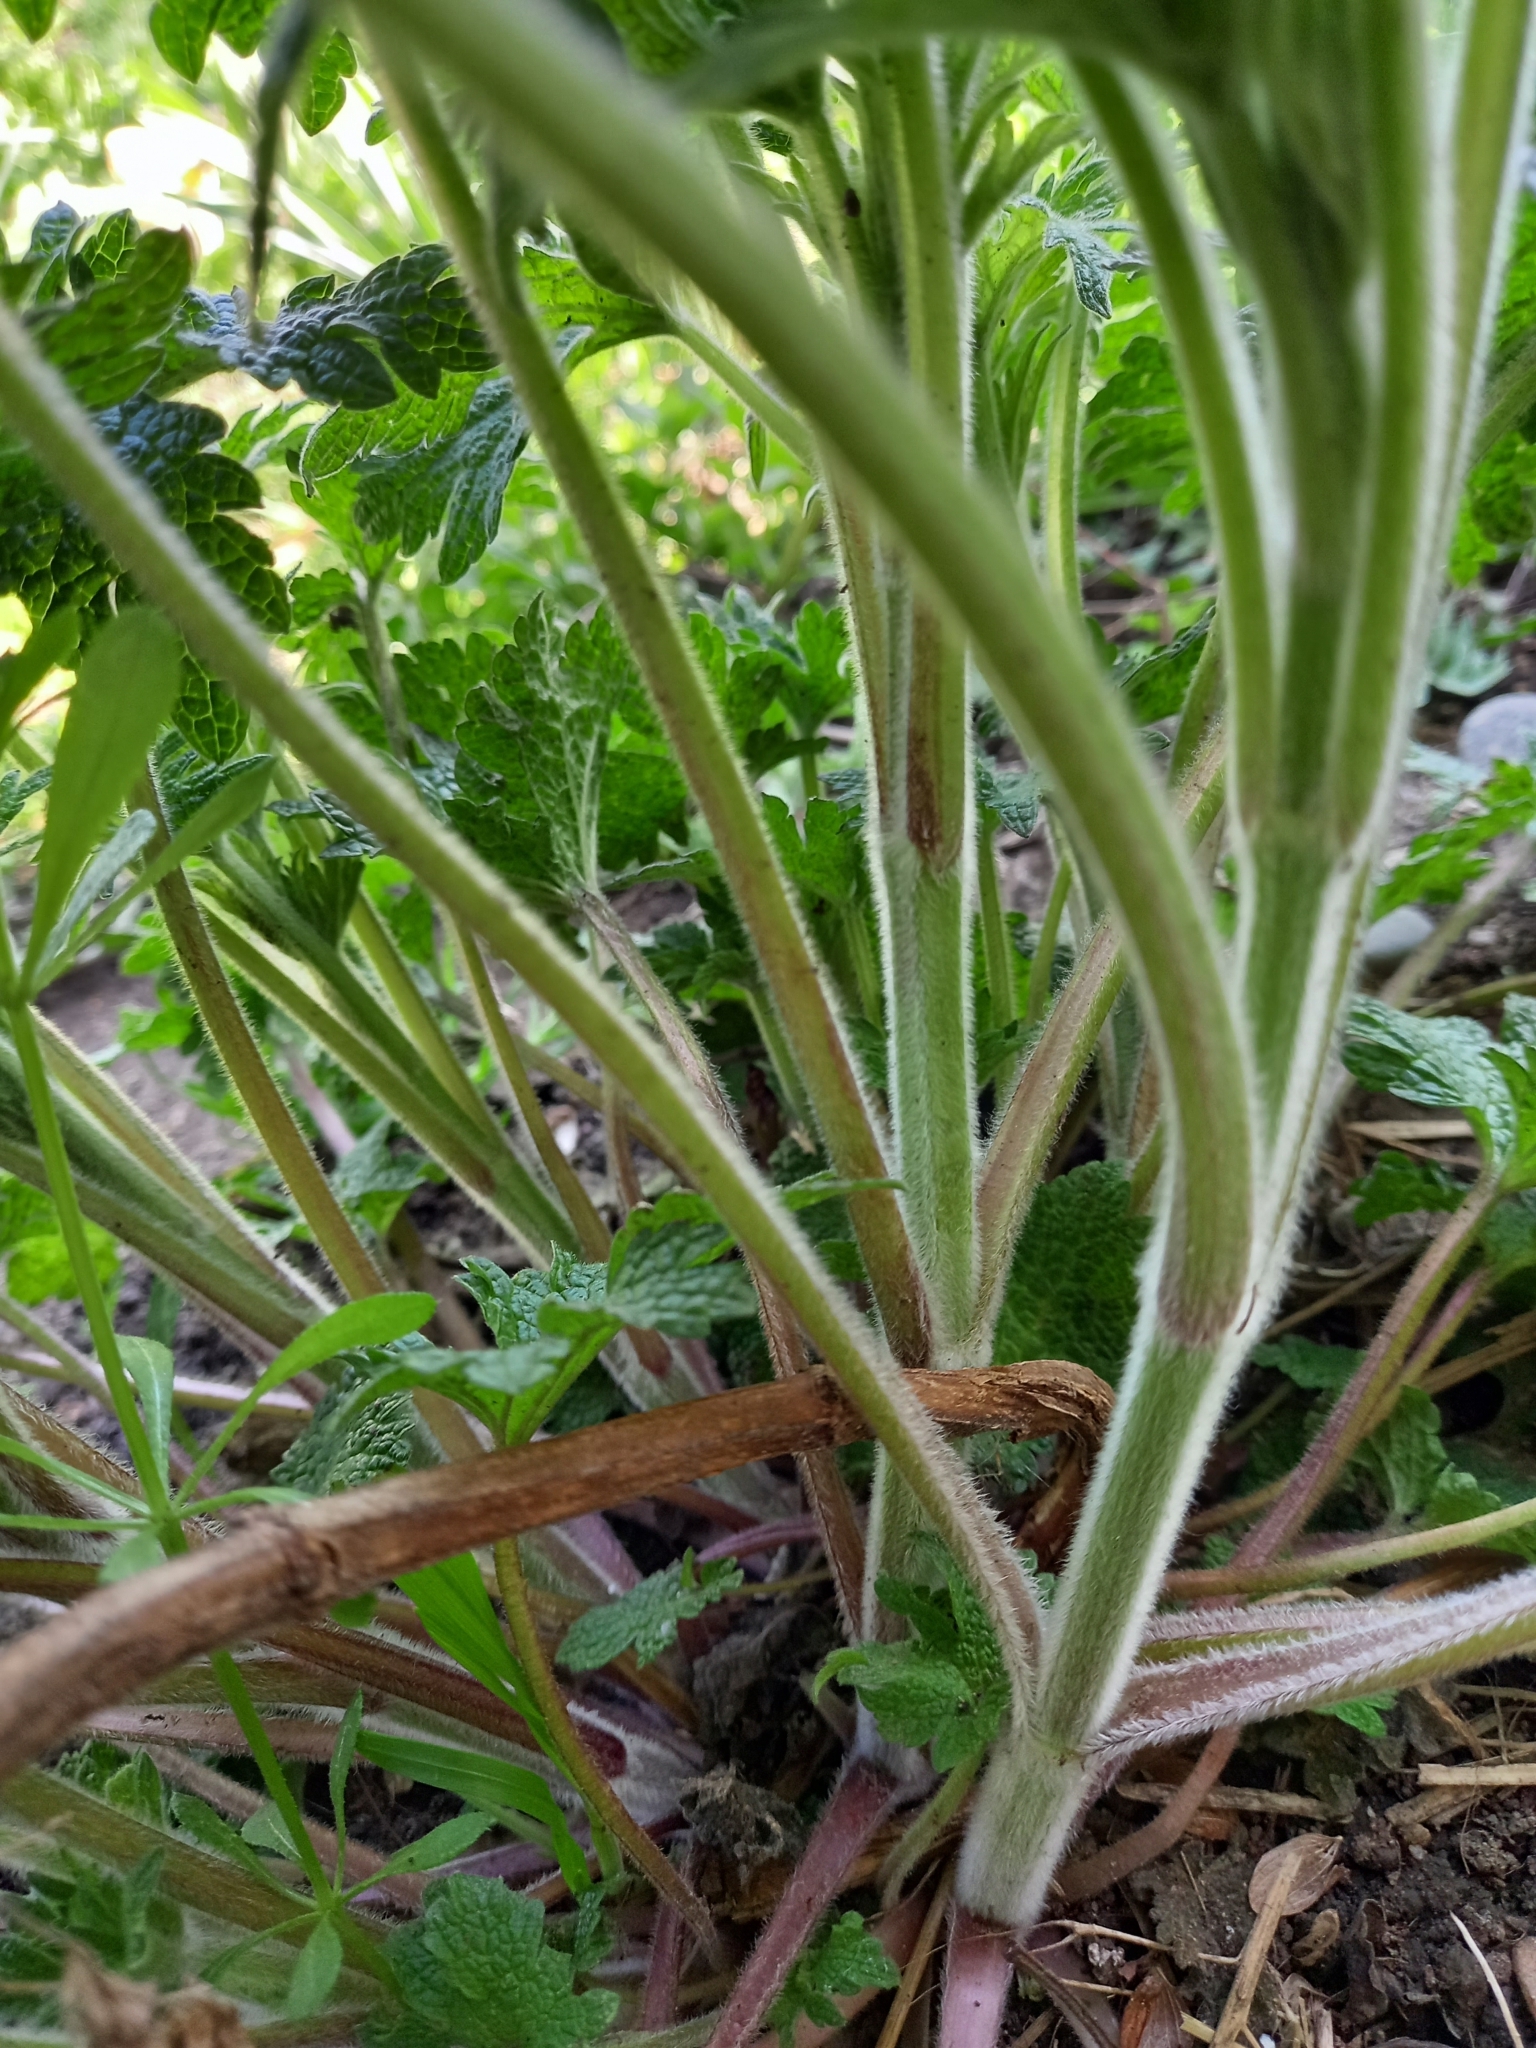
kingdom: Plantae
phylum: Tracheophyta
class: Magnoliopsida
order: Lamiales
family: Lamiaceae
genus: Leonurus
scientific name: Leonurus quinquelobatus
